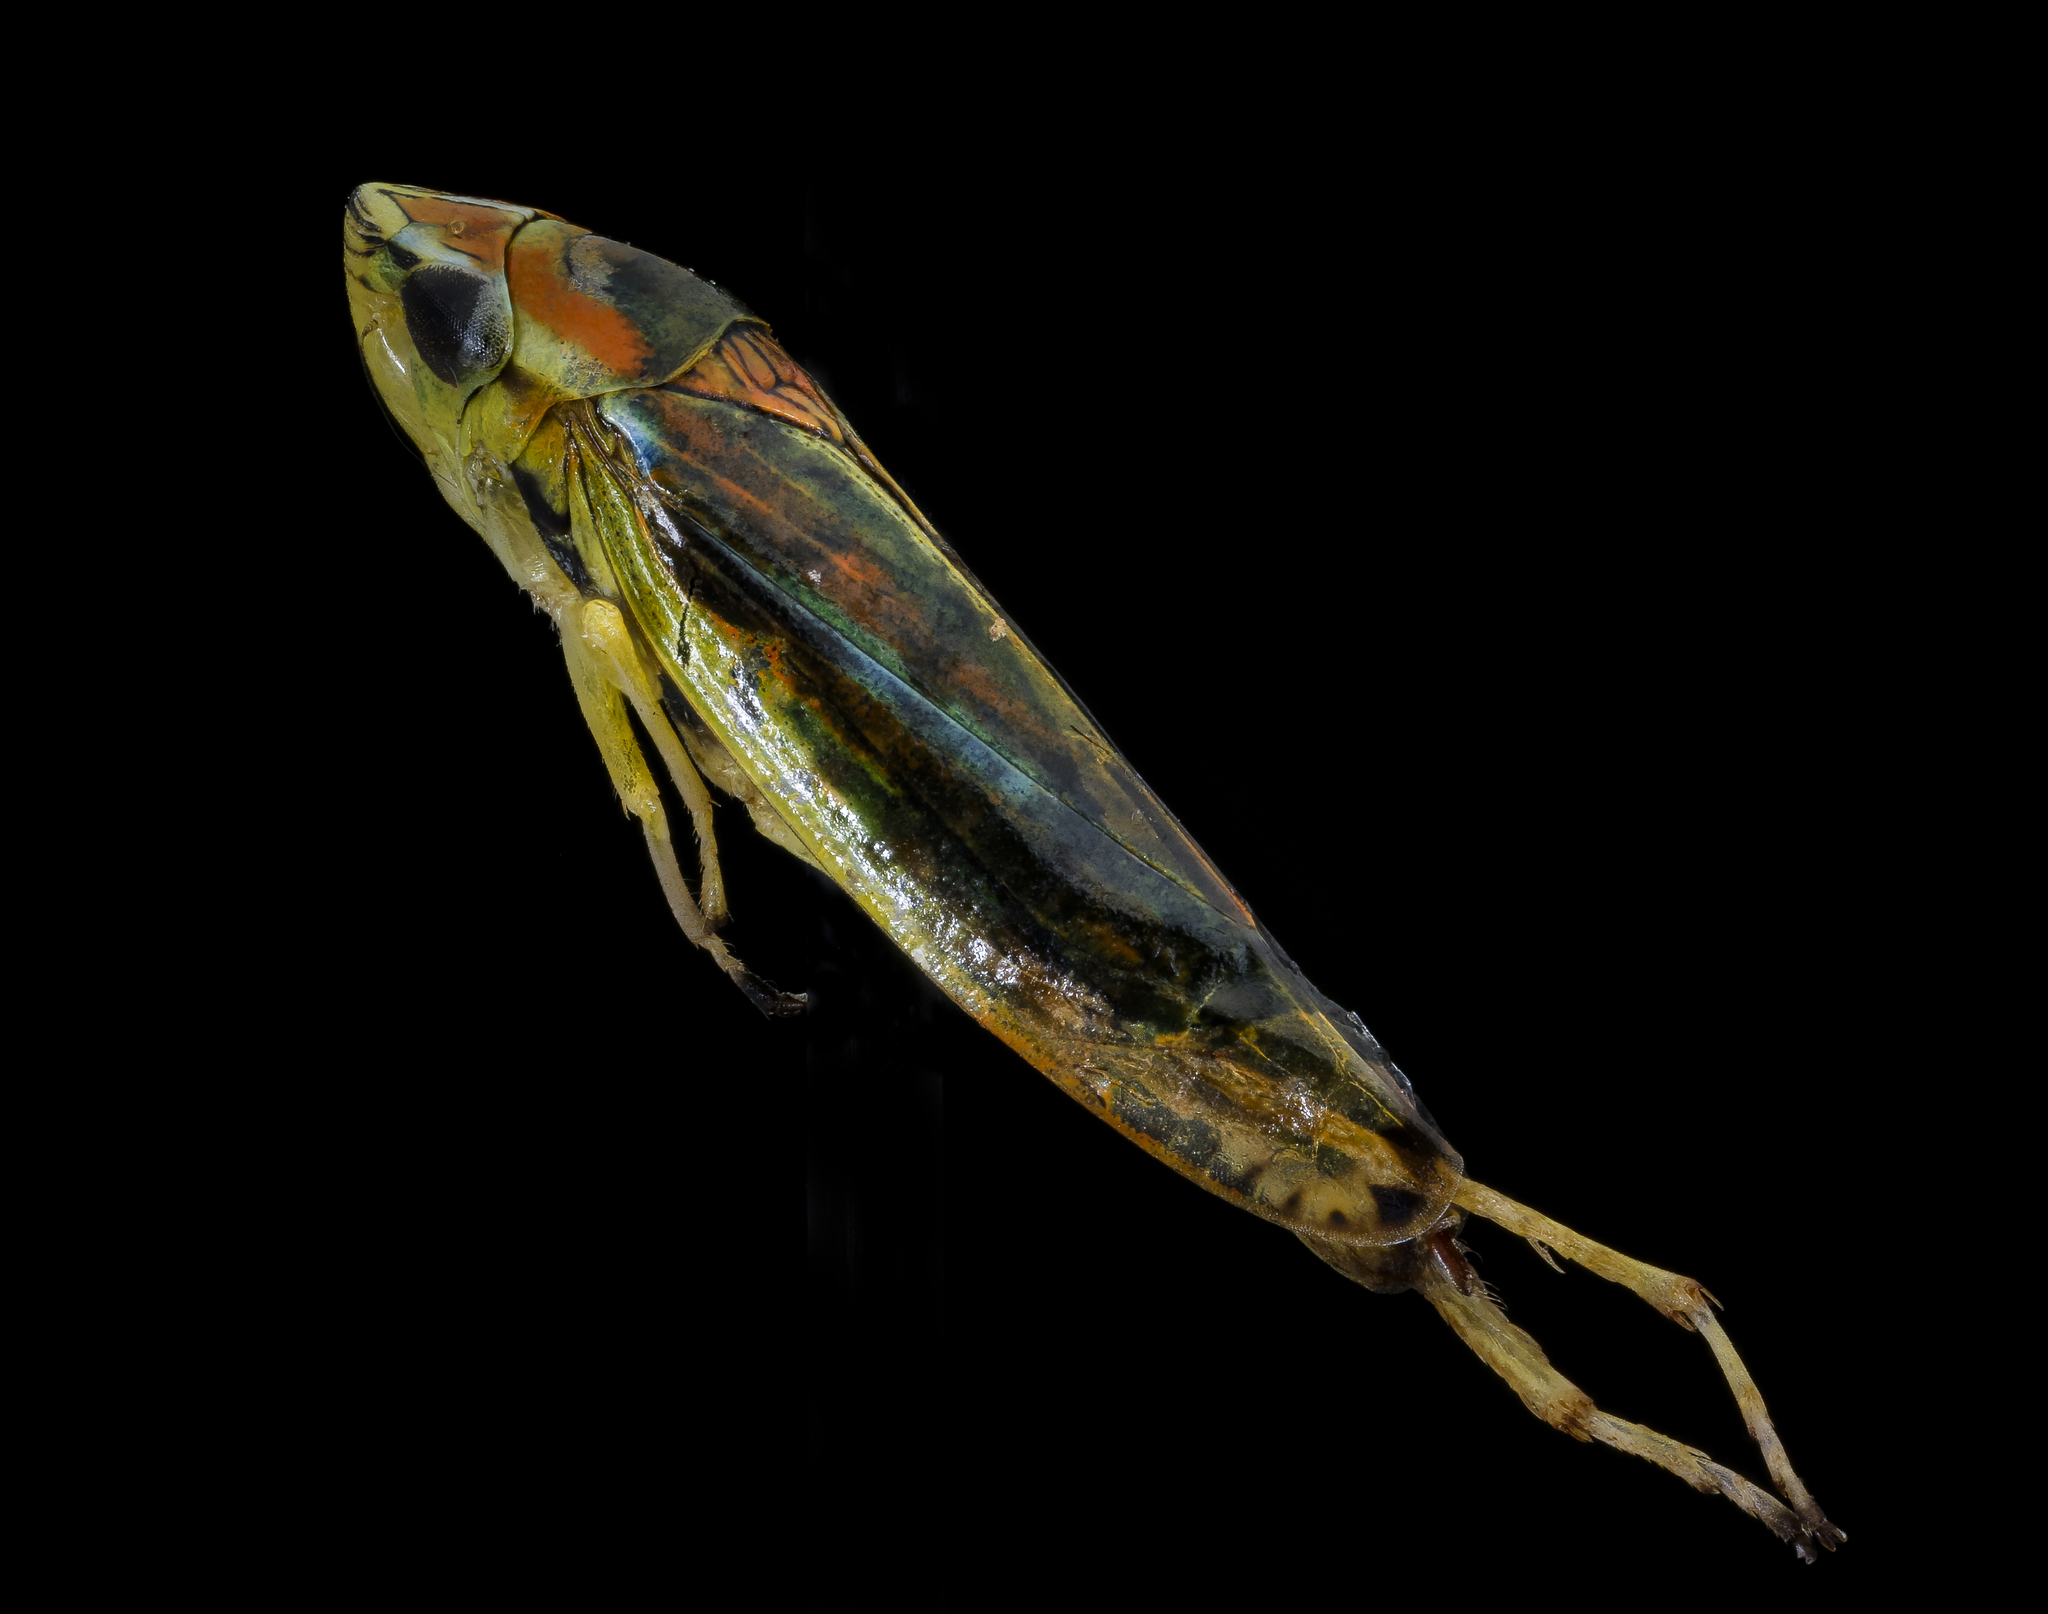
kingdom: Animalia
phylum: Arthropoda
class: Insecta
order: Hemiptera
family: Cicadellidae
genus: Graphocephala
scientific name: Graphocephala versuta
